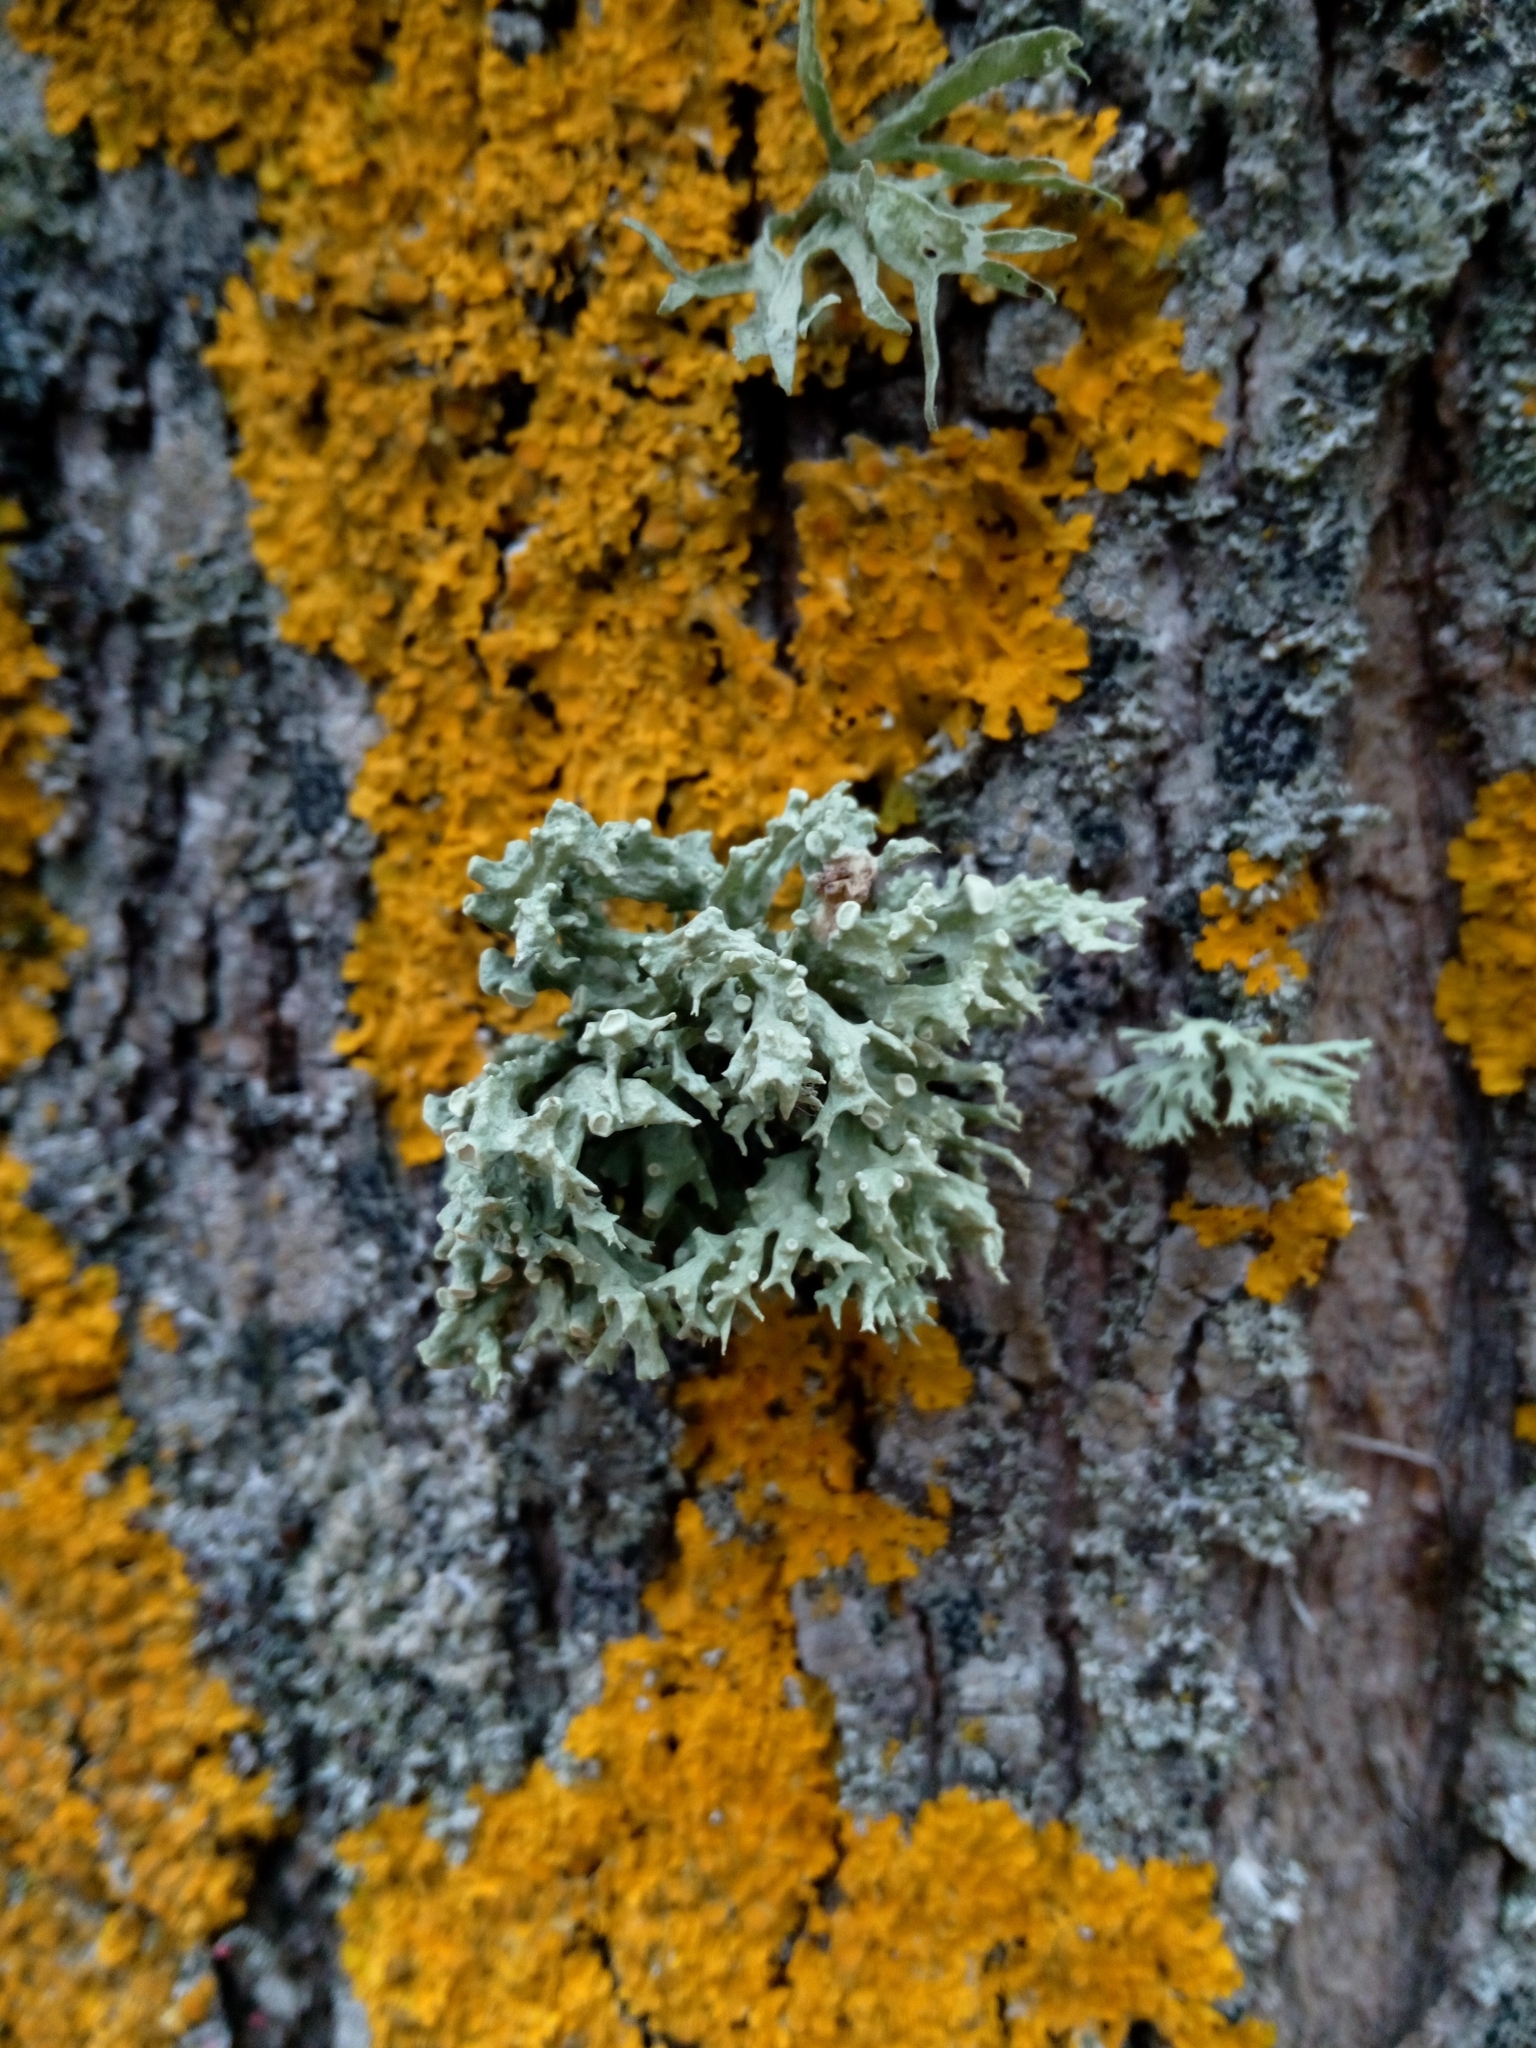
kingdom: Fungi
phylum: Ascomycota
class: Lecanoromycetes
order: Lecanorales
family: Ramalinaceae
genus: Ramalina
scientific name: Ramalina fastigiata
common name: Dotted ribbon lichen
